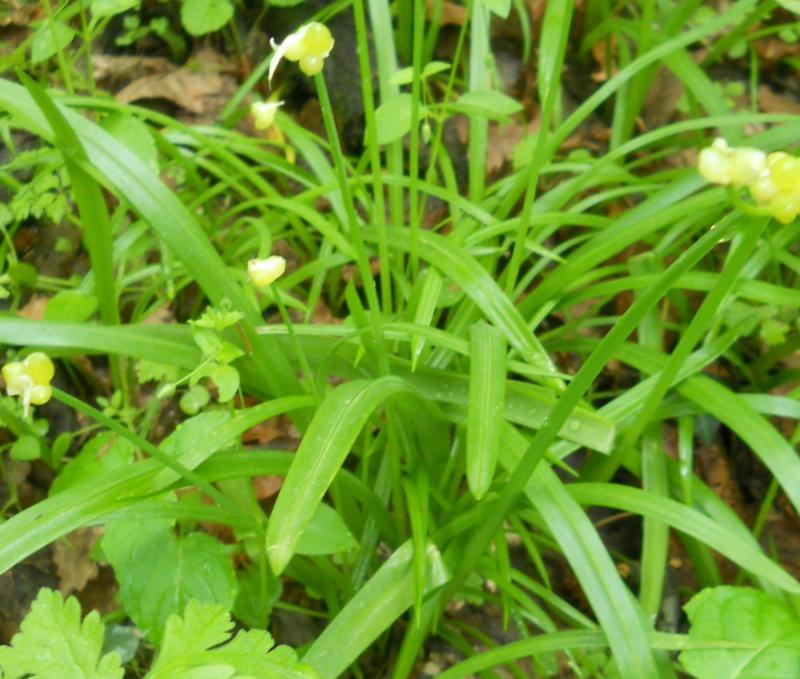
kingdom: Plantae
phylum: Tracheophyta
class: Liliopsida
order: Asparagales
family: Amaryllidaceae
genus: Allium
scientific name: Allium paradoxum
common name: Few-flowered garlic
